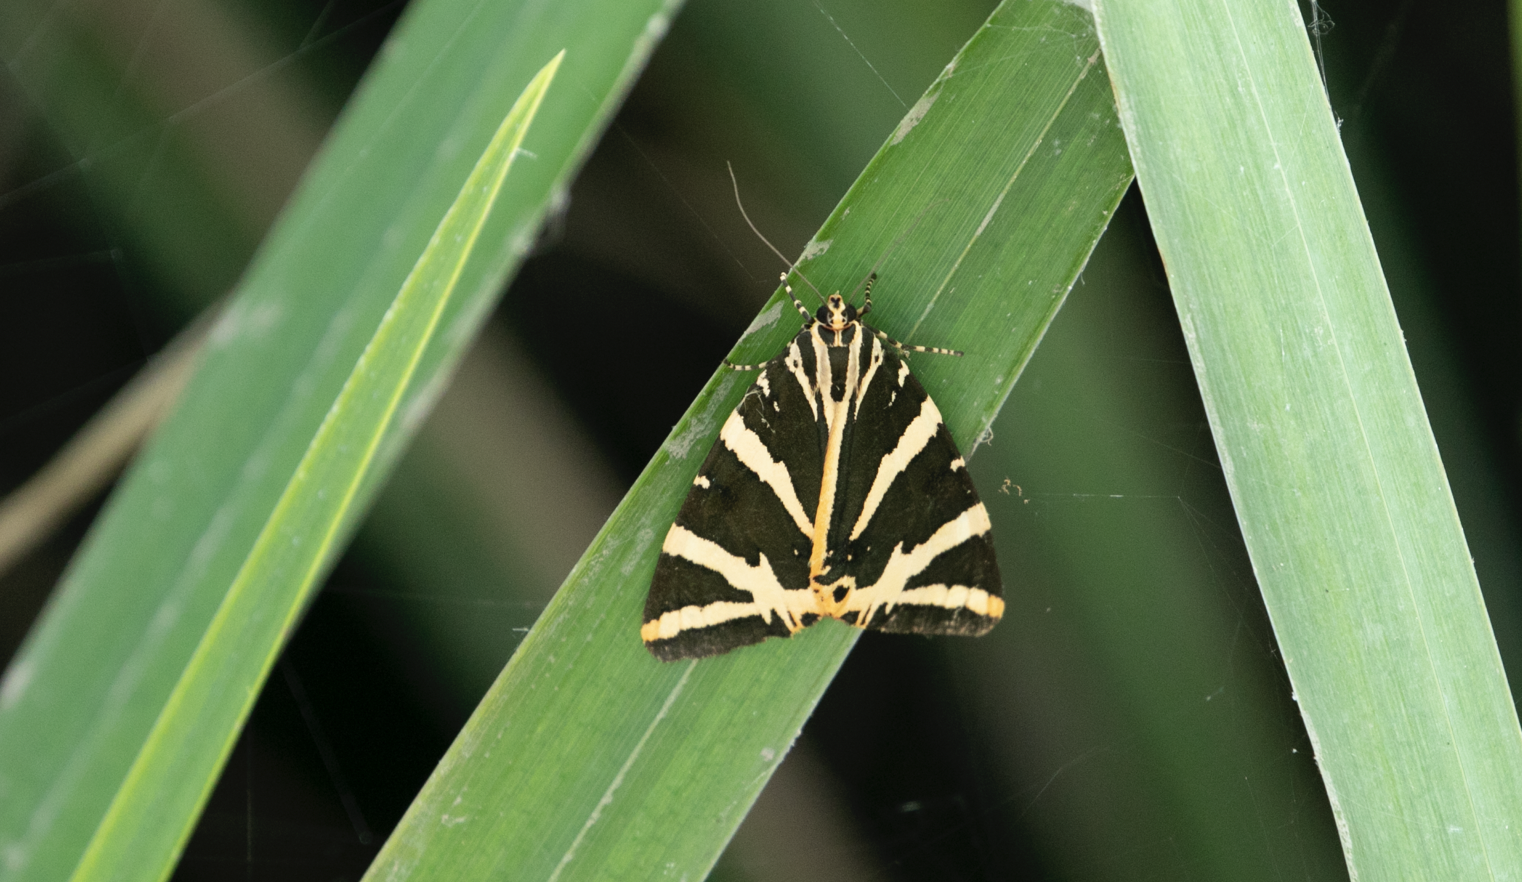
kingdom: Animalia
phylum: Arthropoda
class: Insecta
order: Lepidoptera
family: Erebidae
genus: Euplagia
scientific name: Euplagia quadripunctaria
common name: Jersey tiger
